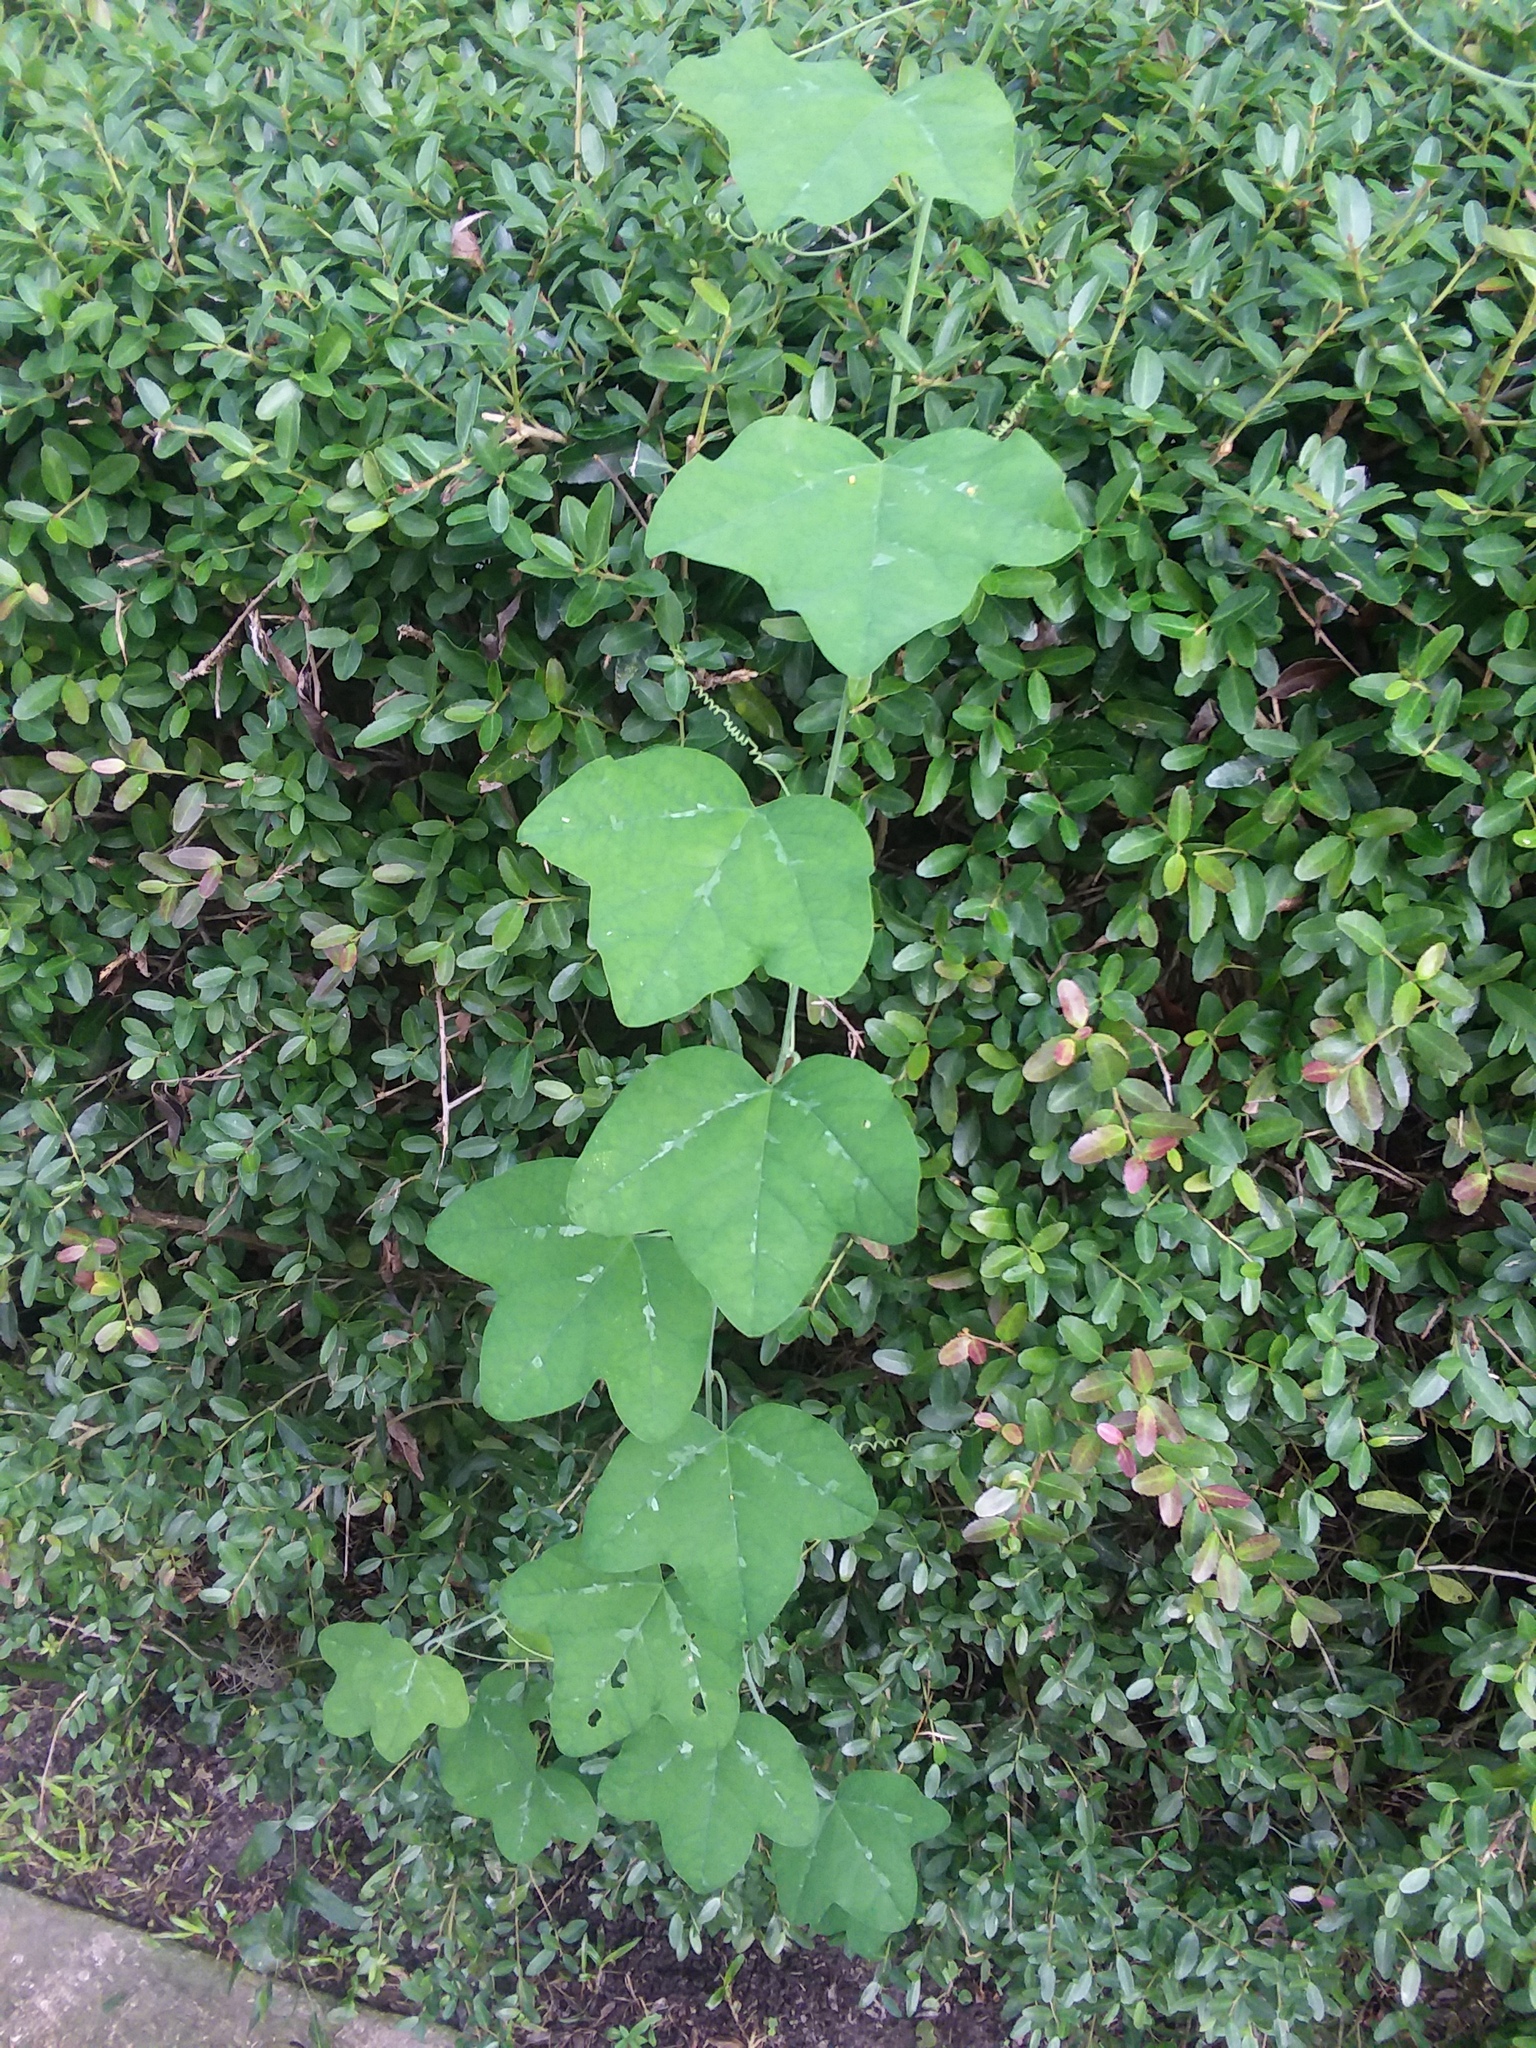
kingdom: Plantae
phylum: Tracheophyta
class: Magnoliopsida
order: Malpighiales
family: Passifloraceae
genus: Passiflora
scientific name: Passiflora lutea
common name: Yellow passionflower
